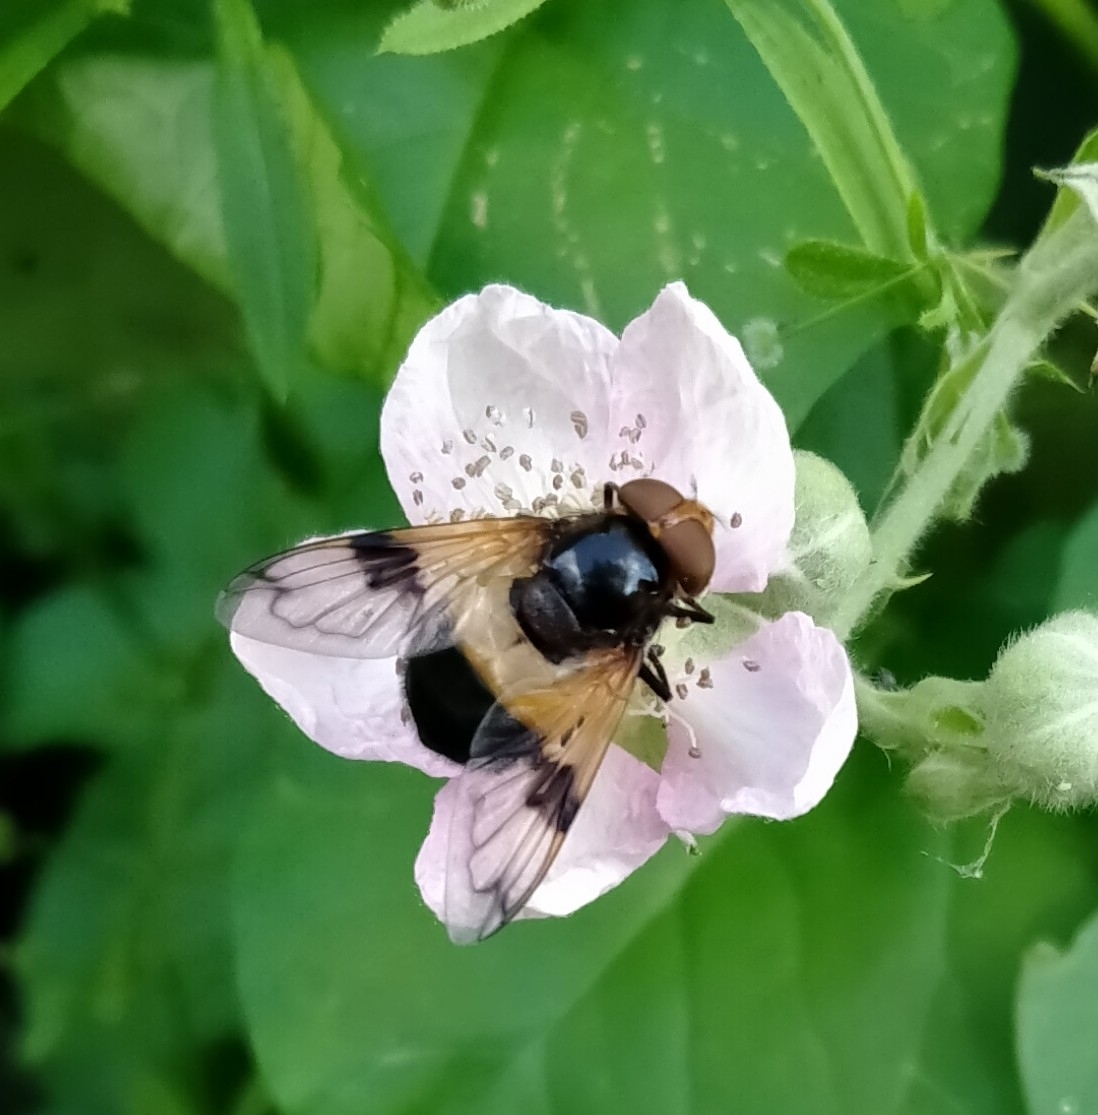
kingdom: Animalia
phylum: Arthropoda
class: Insecta
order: Diptera
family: Syrphidae
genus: Volucella
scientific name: Volucella pellucens
